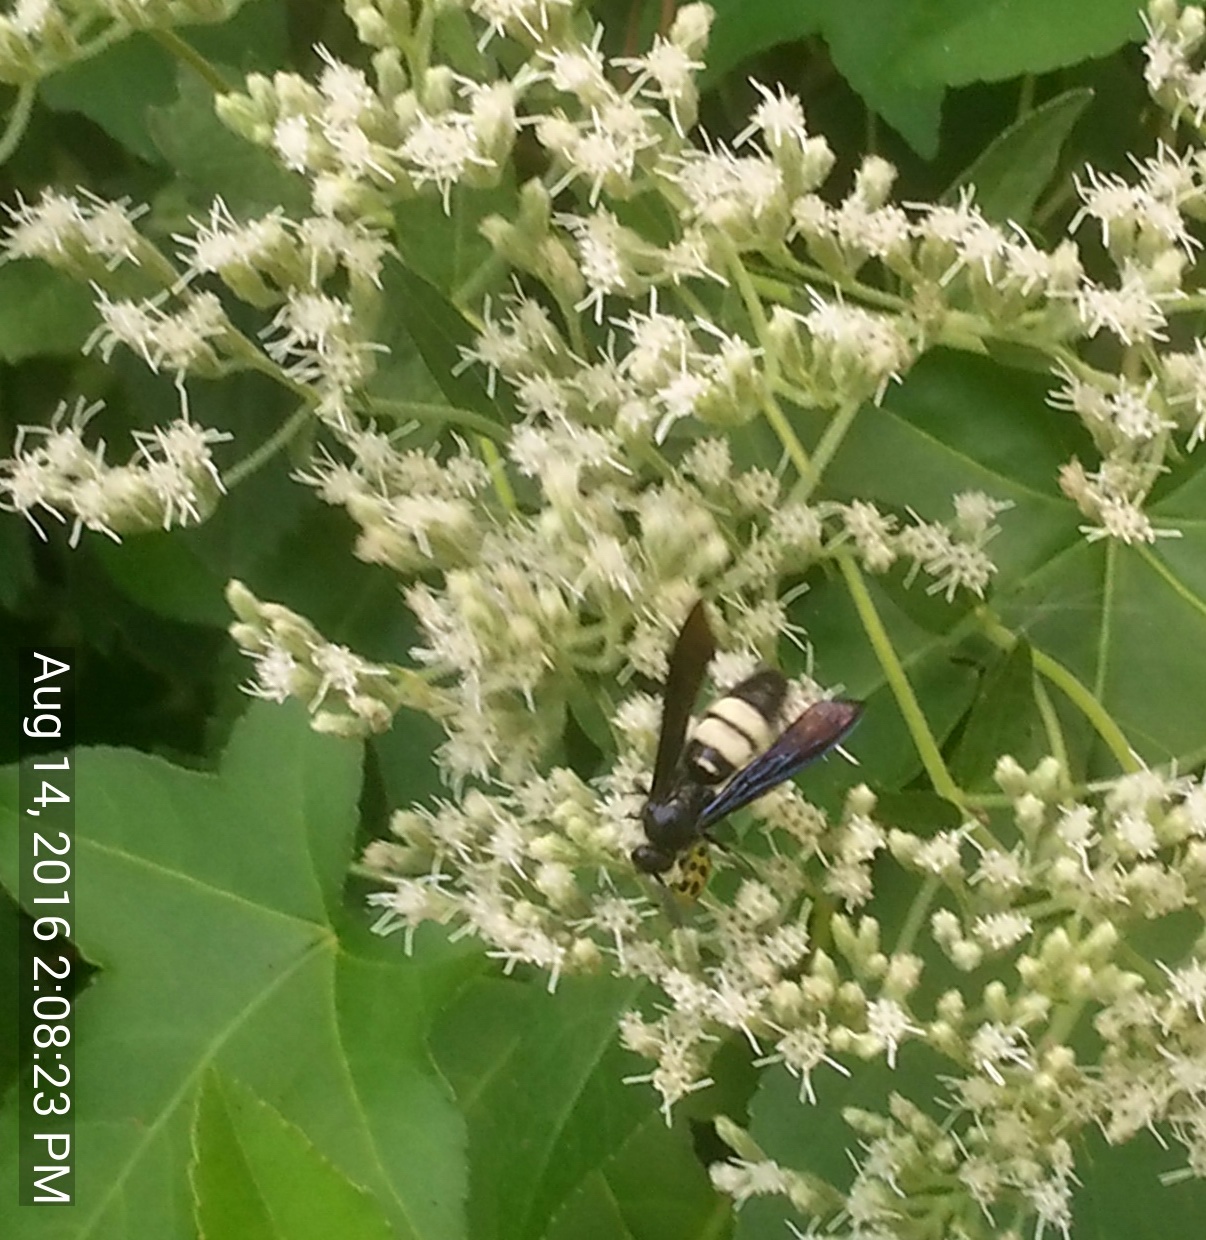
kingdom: Animalia
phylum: Arthropoda
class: Insecta
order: Hymenoptera
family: Scoliidae
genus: Scolia
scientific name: Scolia bicincta
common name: Double-banded scoliid wasp
